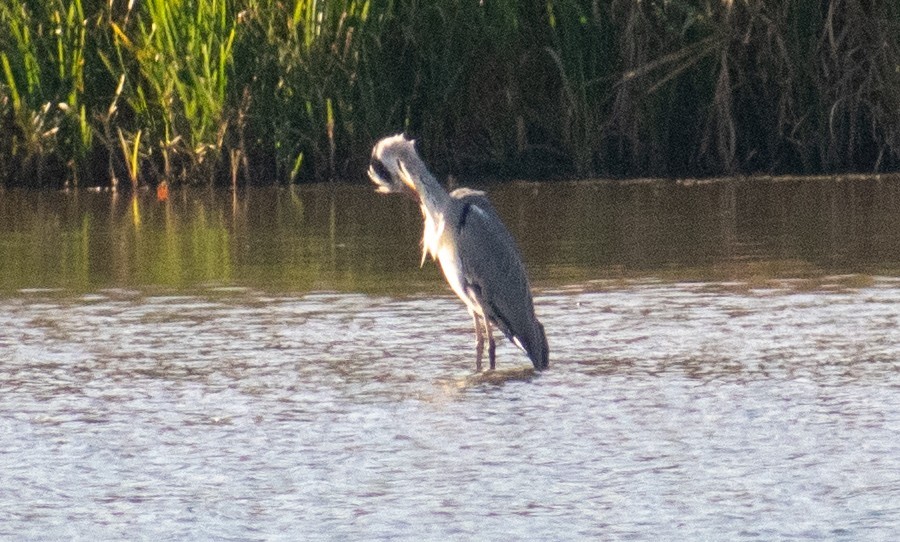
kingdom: Animalia
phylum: Chordata
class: Aves
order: Pelecaniformes
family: Ardeidae
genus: Ardea
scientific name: Ardea cinerea
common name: Grey heron
